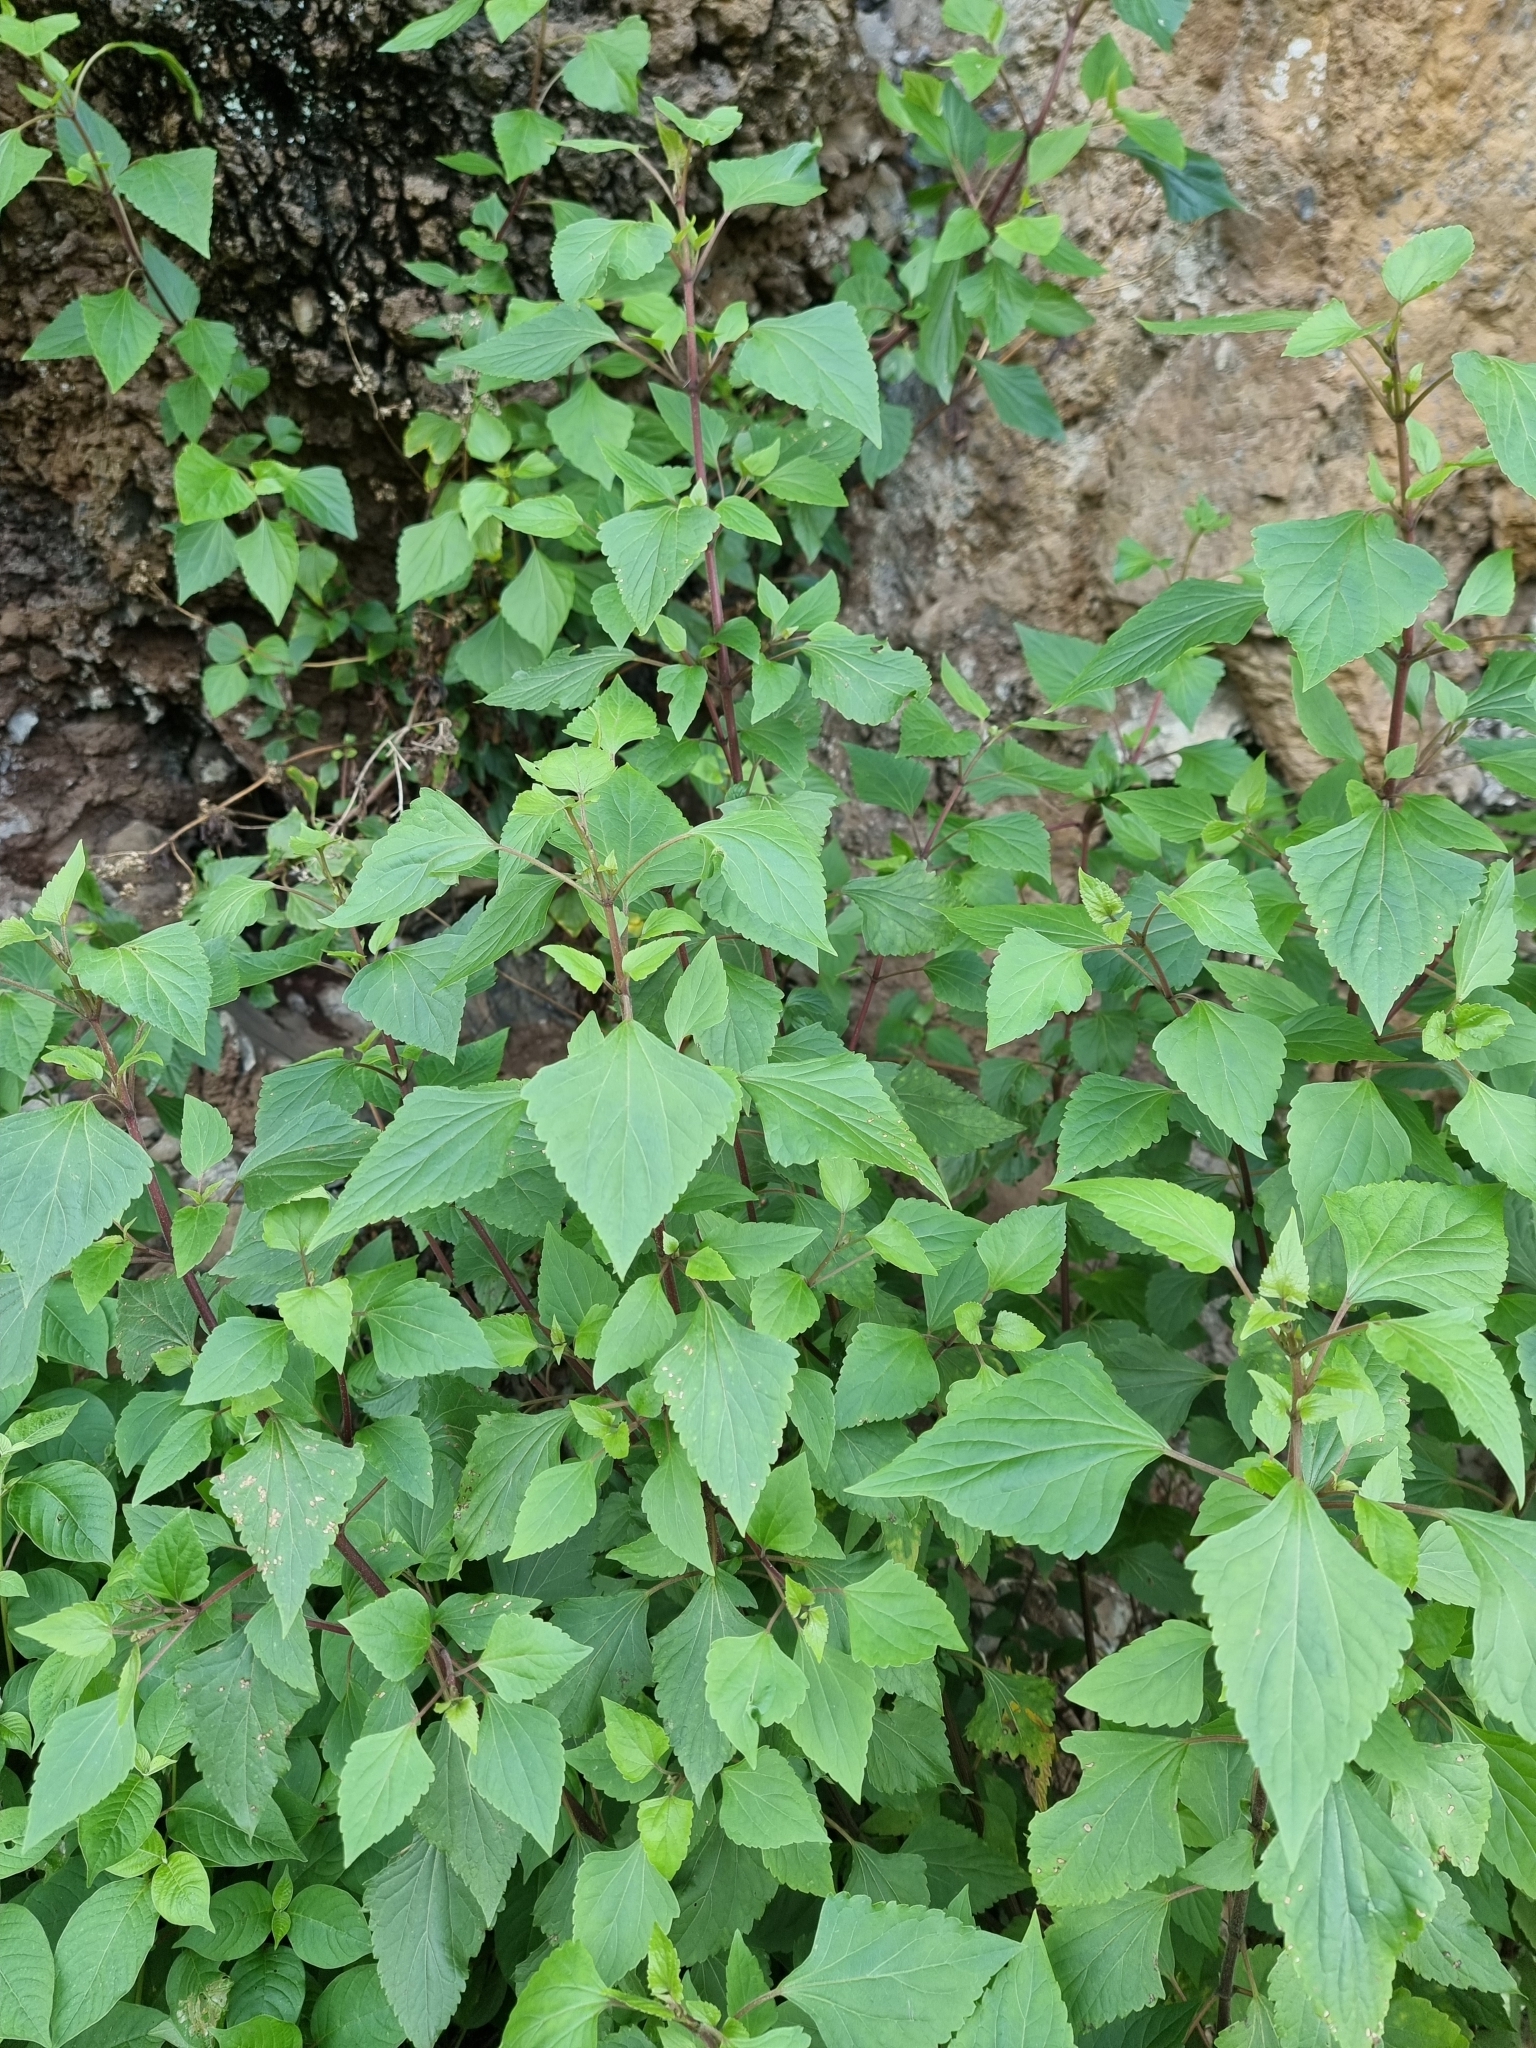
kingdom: Plantae
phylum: Tracheophyta
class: Magnoliopsida
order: Asterales
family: Asteraceae
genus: Ageratina
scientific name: Ageratina adenophora
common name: Sticky snakeroot
